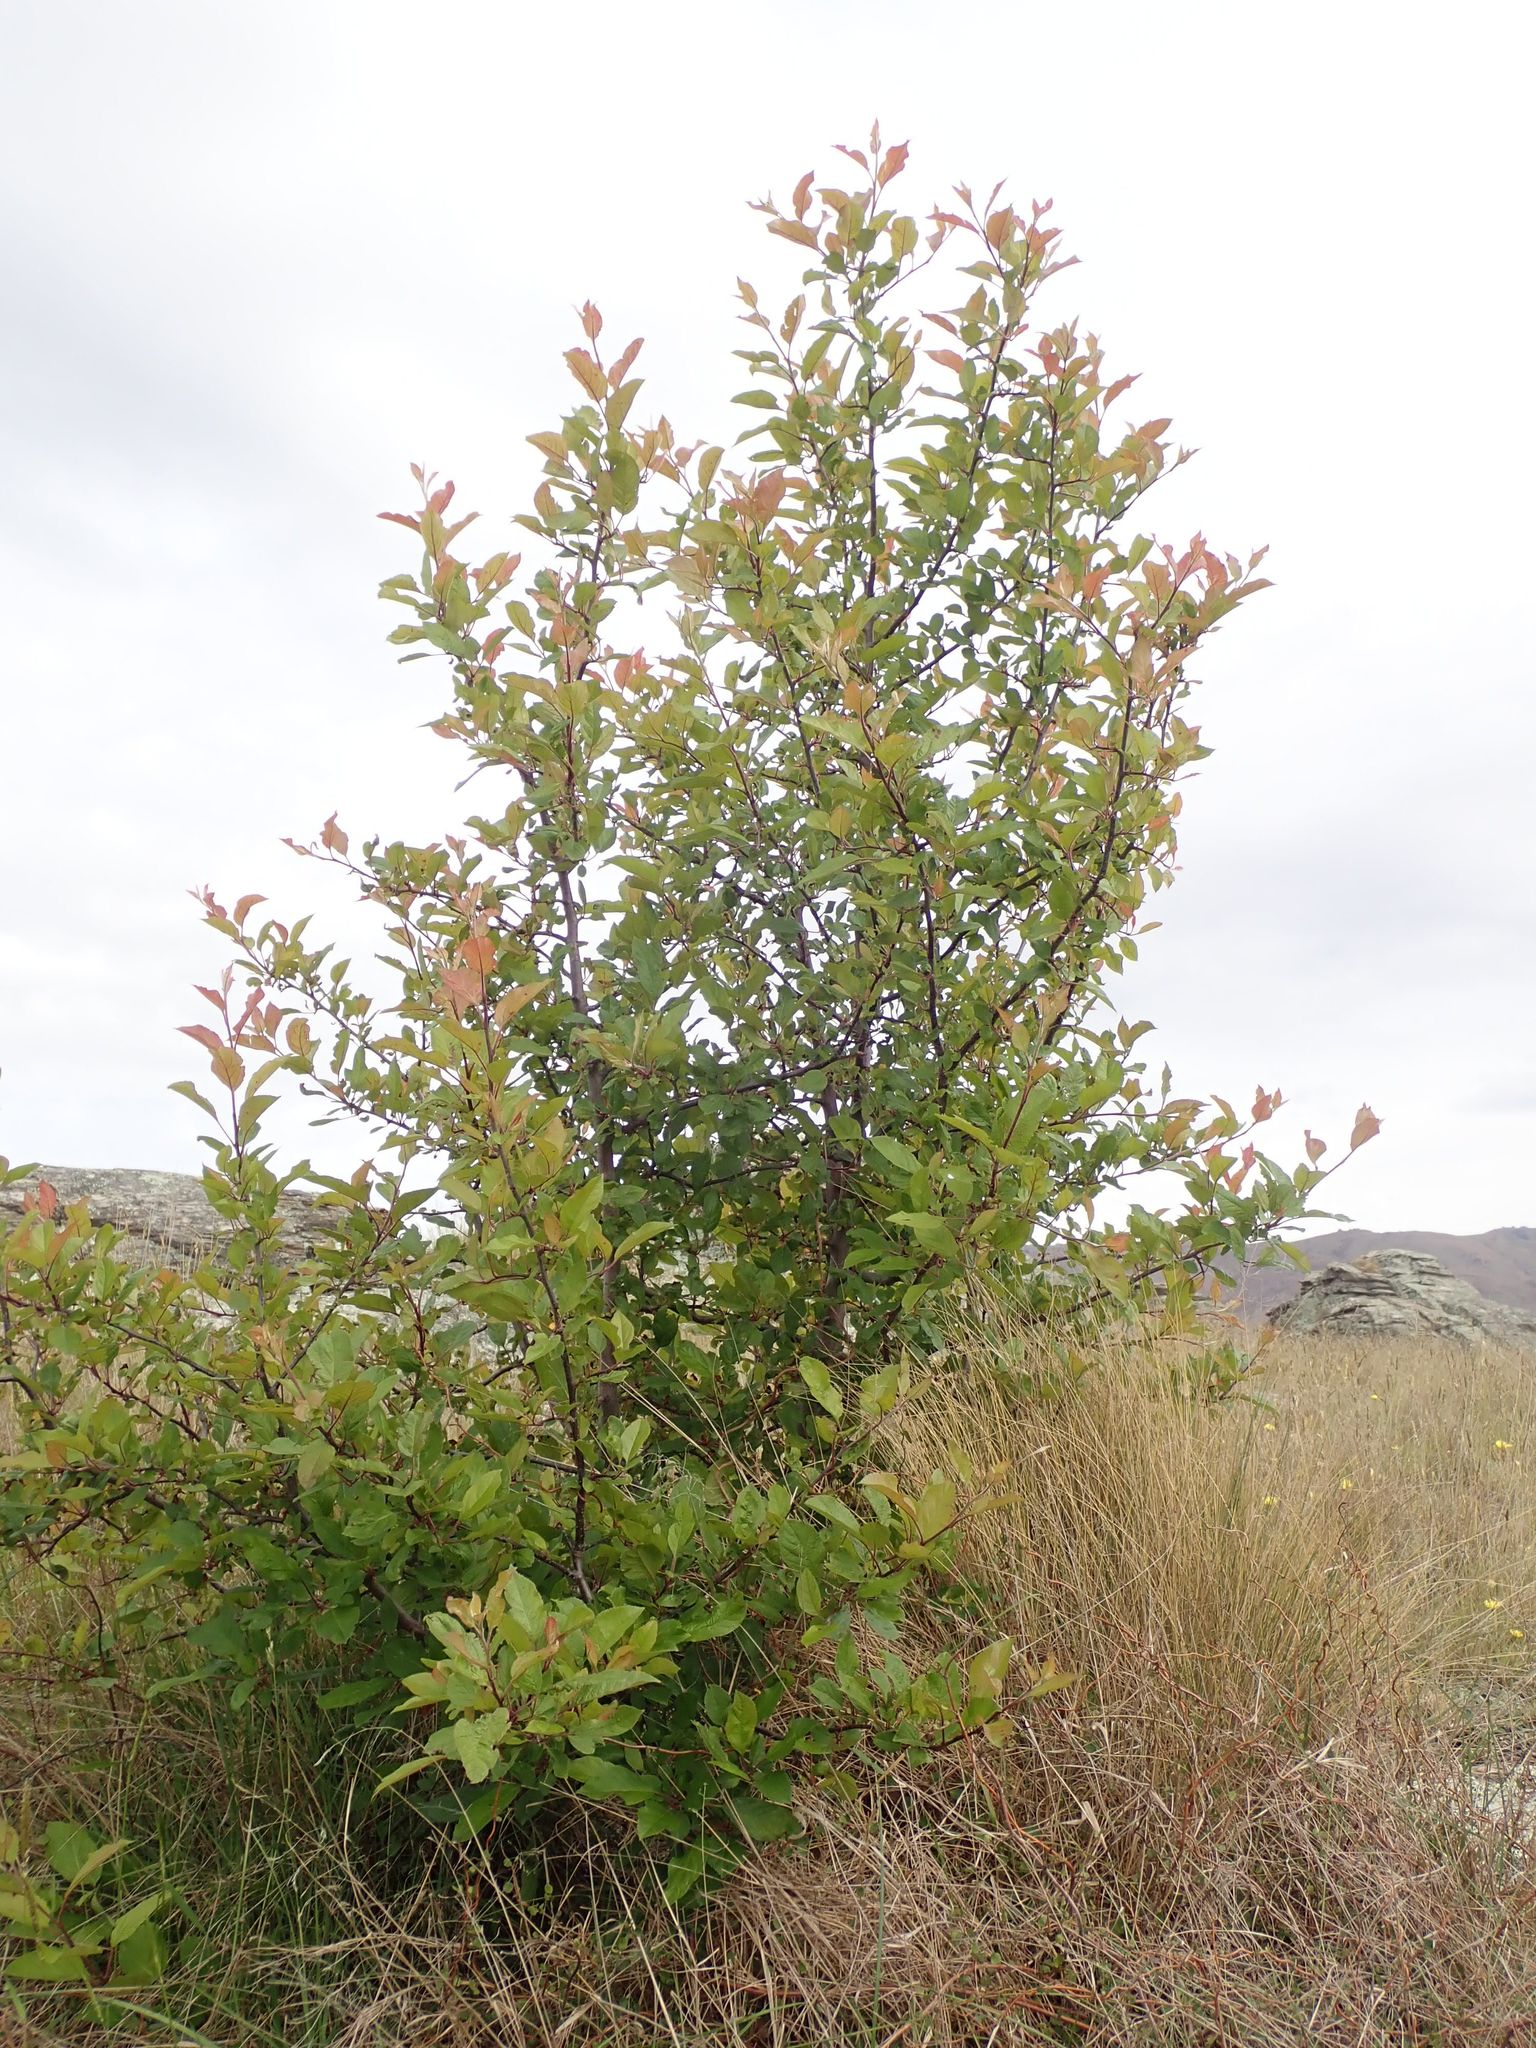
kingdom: Plantae
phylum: Tracheophyta
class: Magnoliopsida
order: Malpighiales
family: Salicaceae
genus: Salix
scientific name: Salix cinerea
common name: Common sallow
